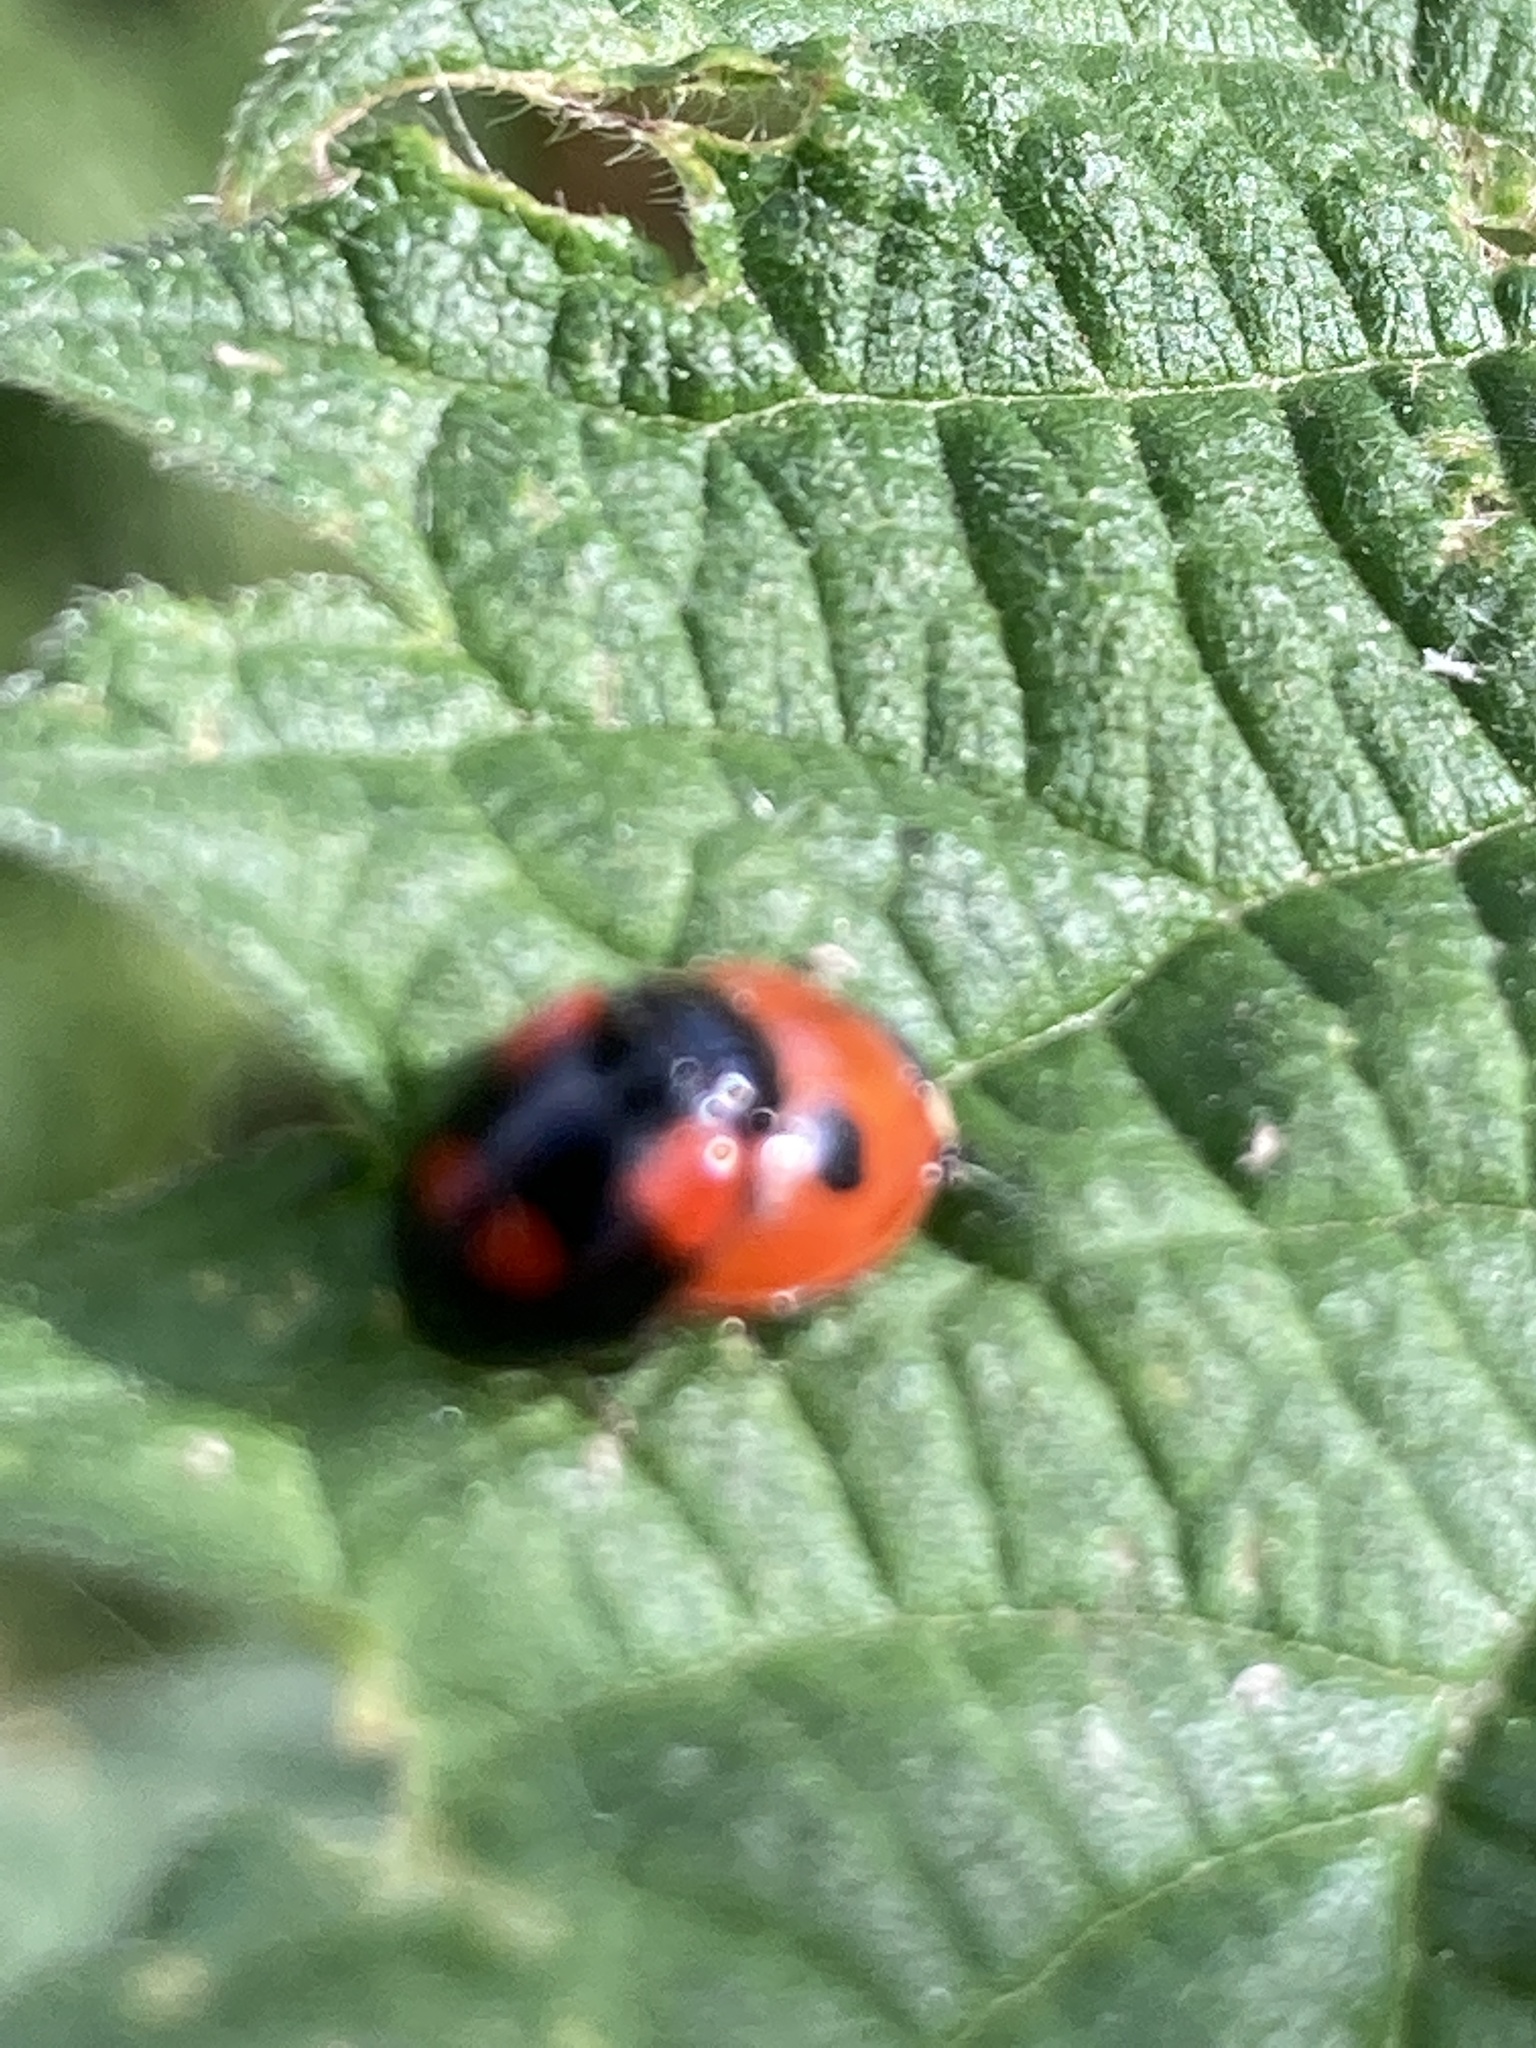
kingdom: Animalia
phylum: Arthropoda
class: Insecta
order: Coleoptera
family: Coccinellidae
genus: Adalia
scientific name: Adalia bipunctata
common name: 2-spot ladybird
